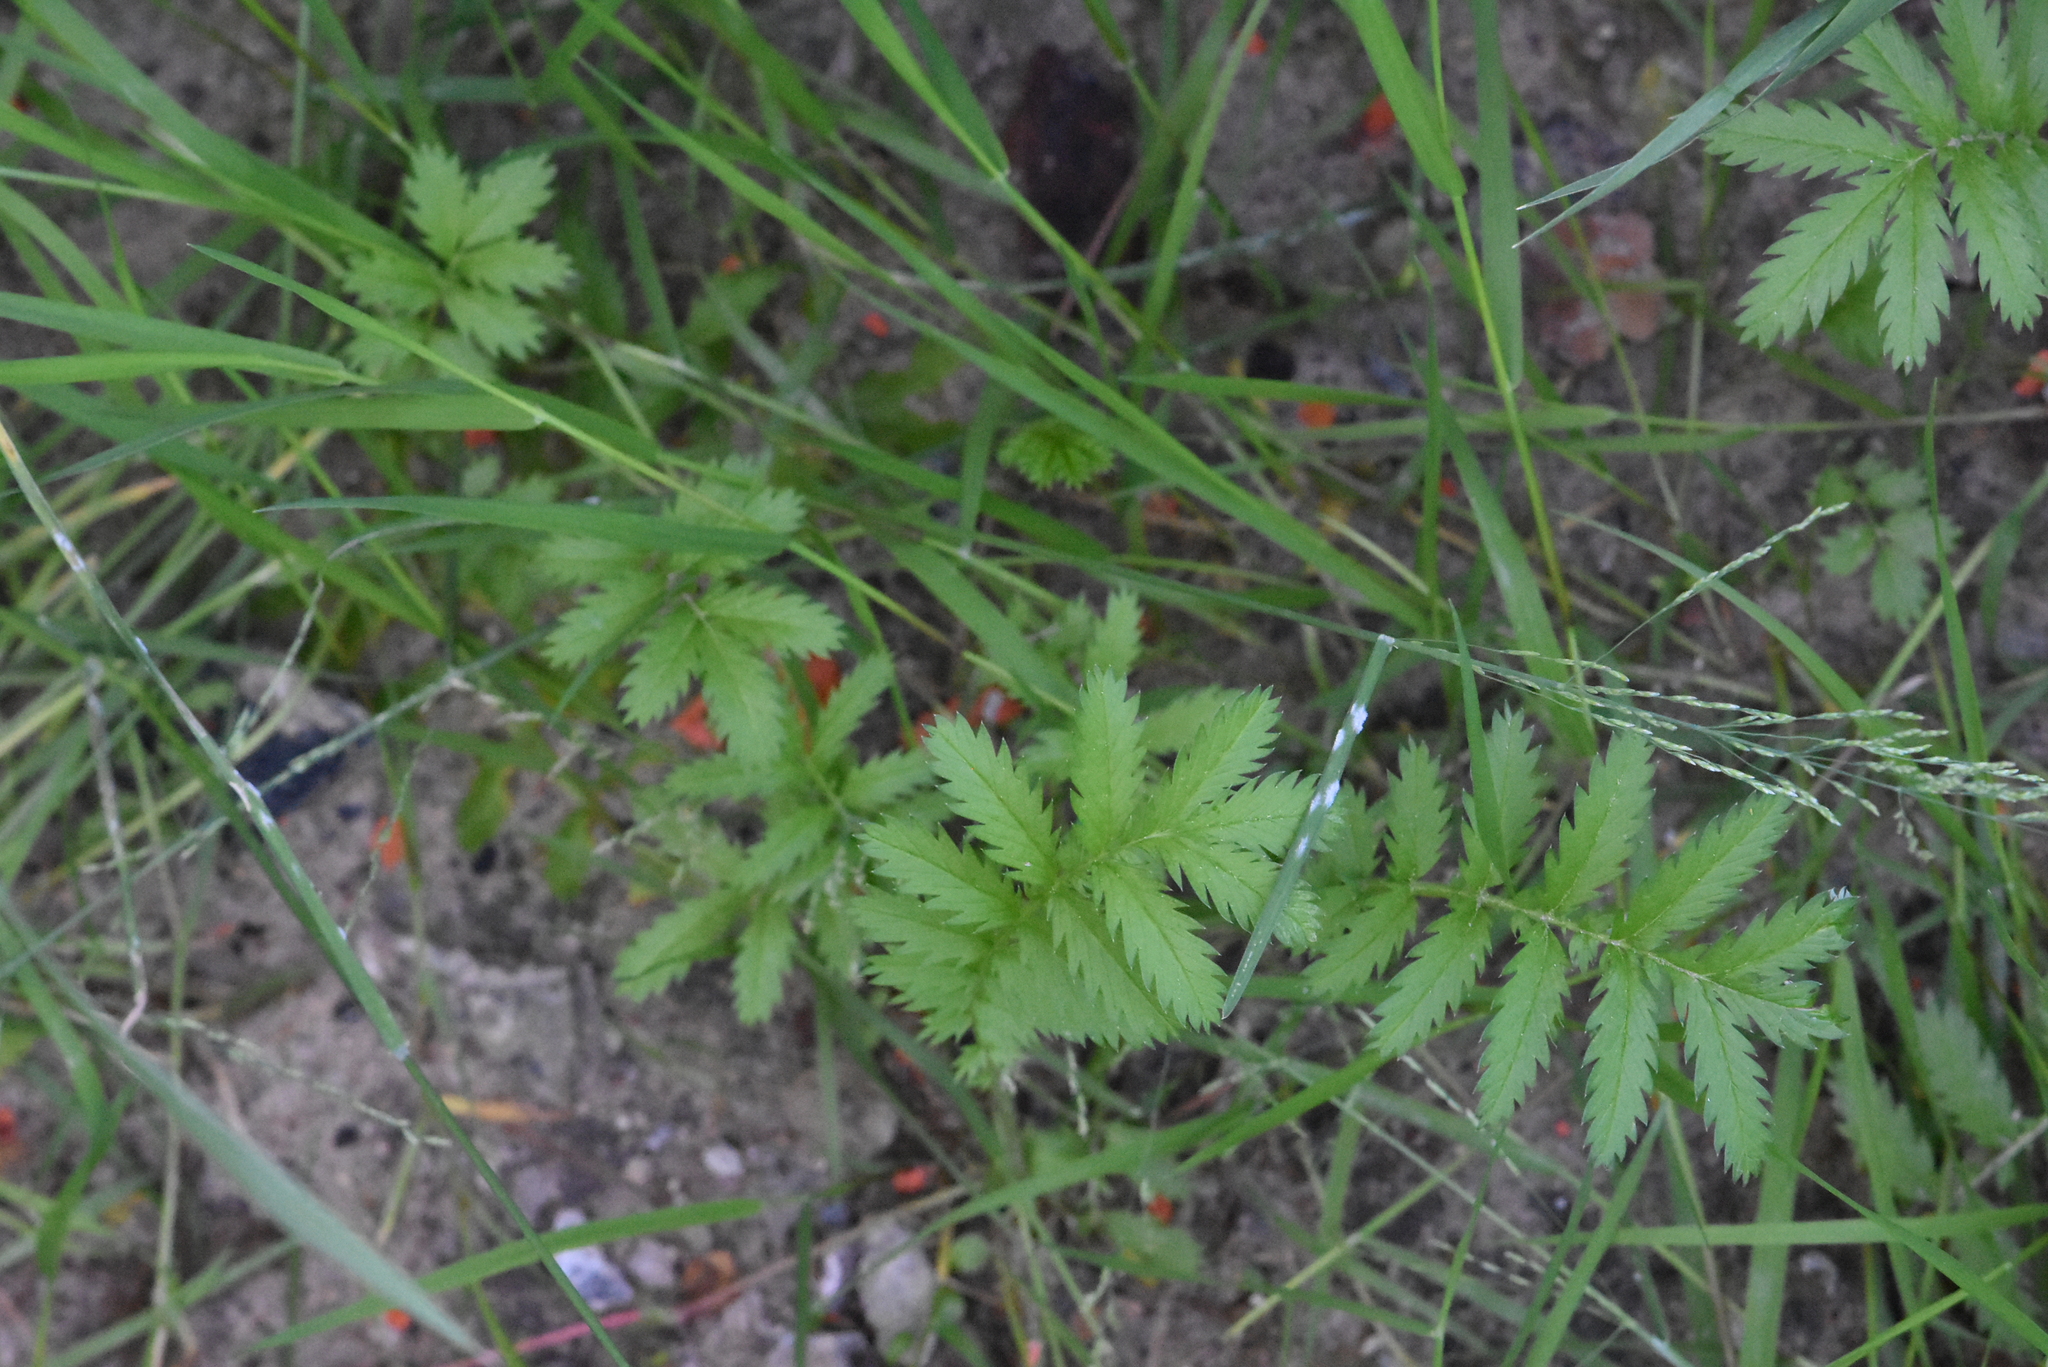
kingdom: Plantae
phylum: Tracheophyta
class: Magnoliopsida
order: Rosales
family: Rosaceae
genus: Argentina
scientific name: Argentina anserina
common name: Common silverweed
